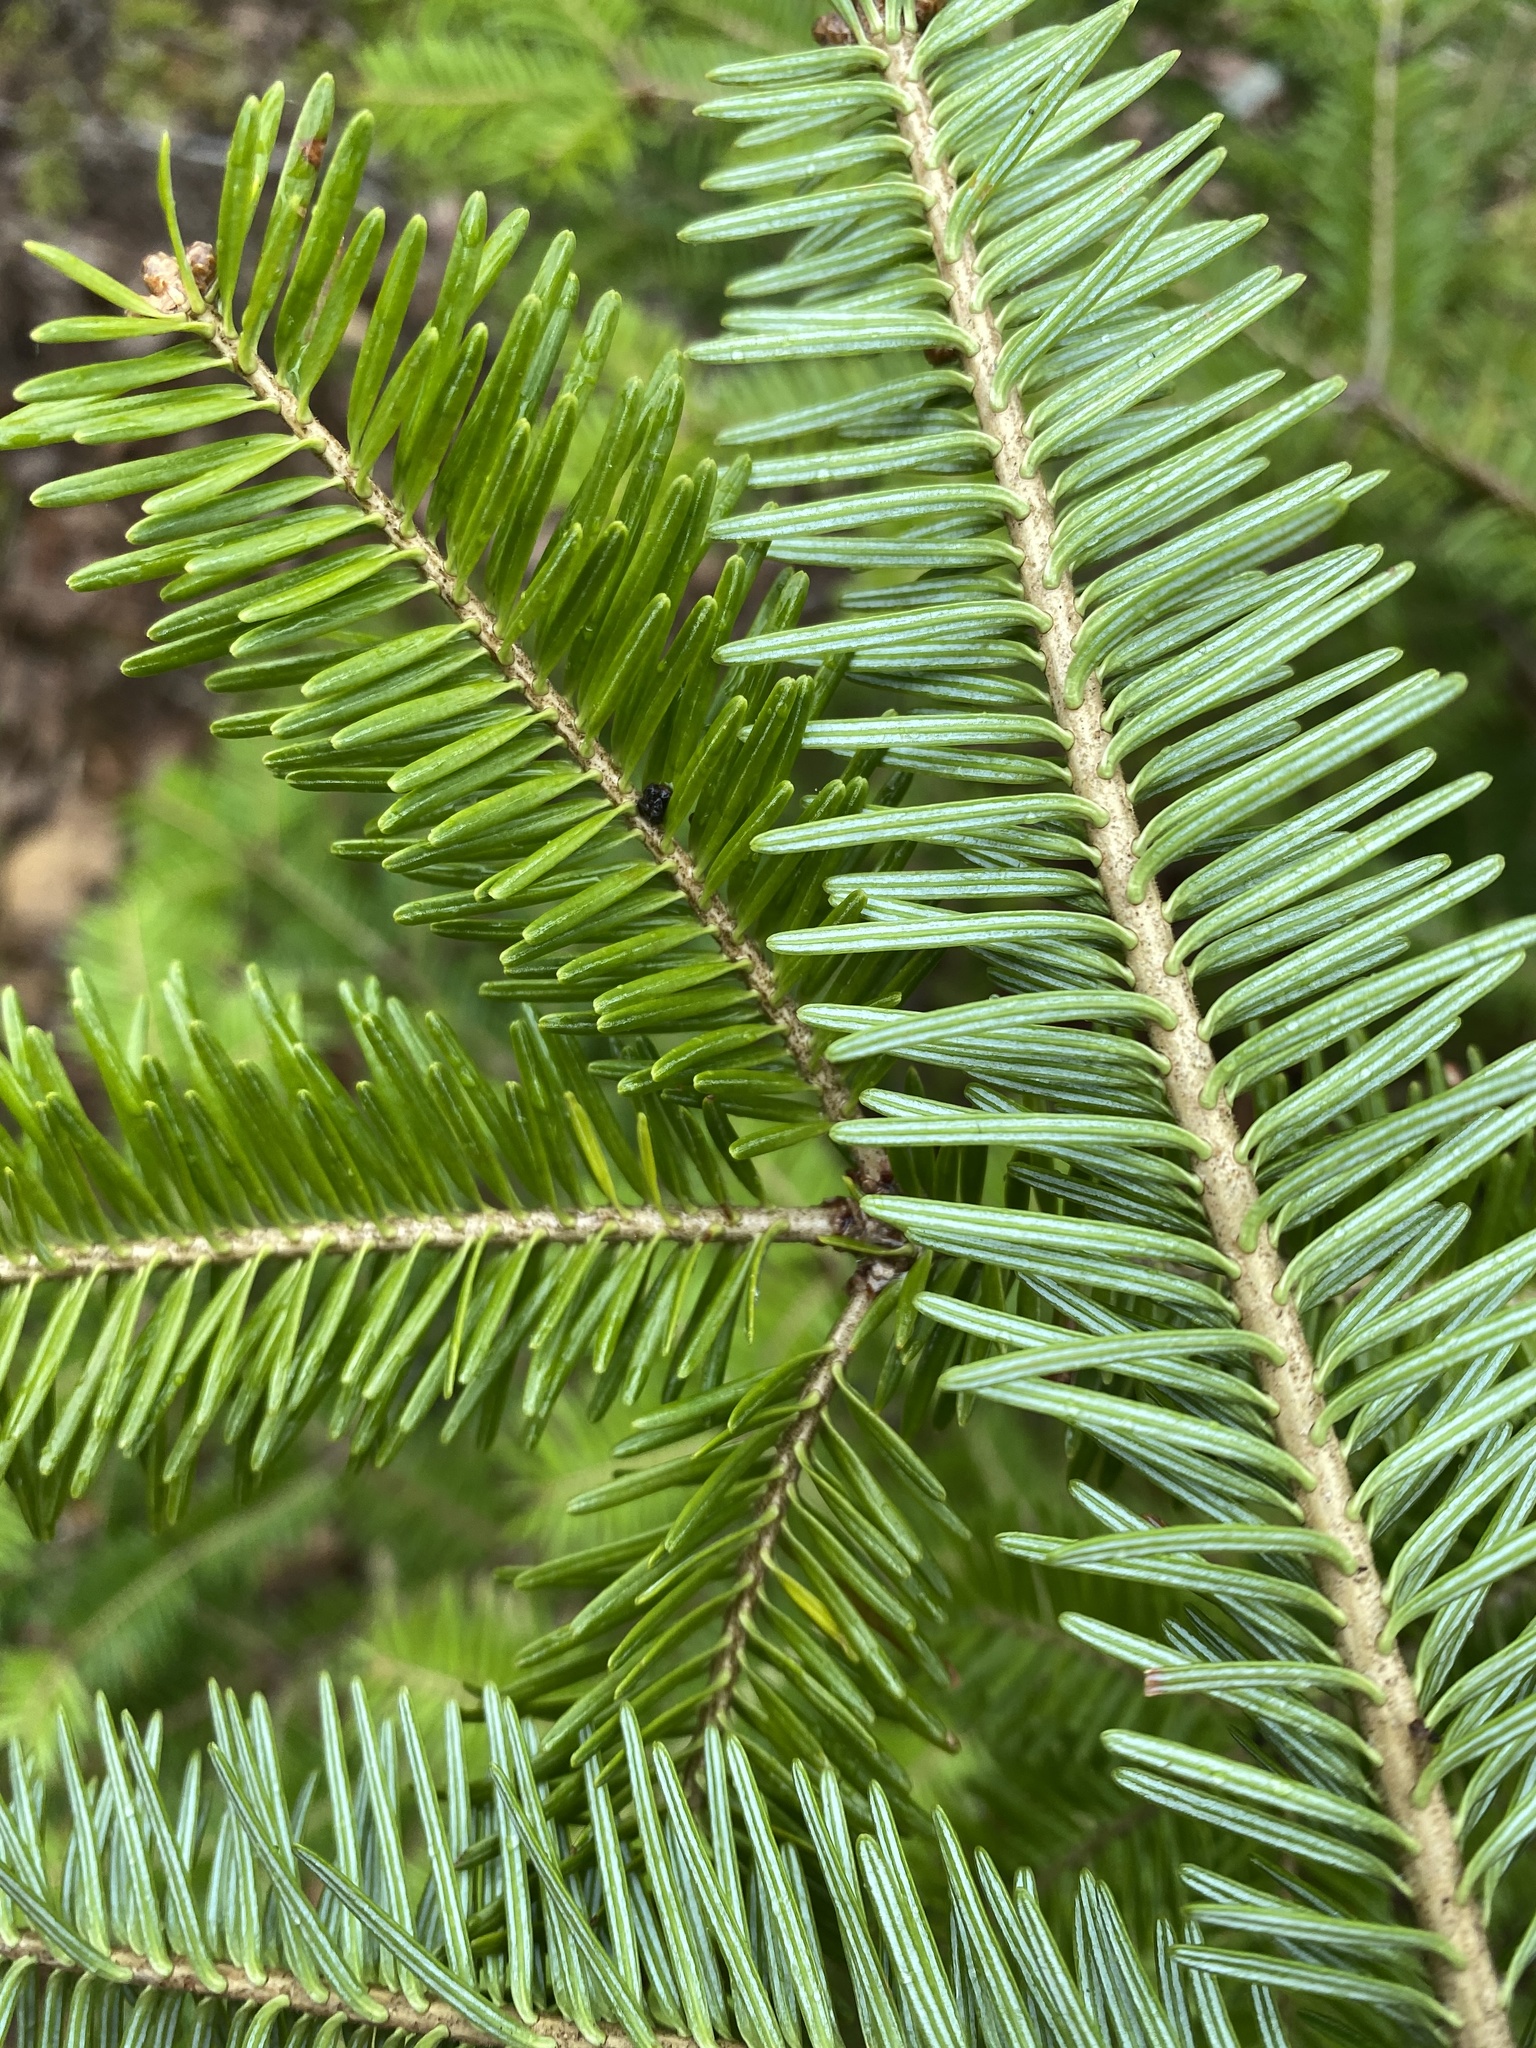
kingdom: Plantae
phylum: Tracheophyta
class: Pinopsida
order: Pinales
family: Pinaceae
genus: Abies
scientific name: Abies balsamea
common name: Balsam fir
